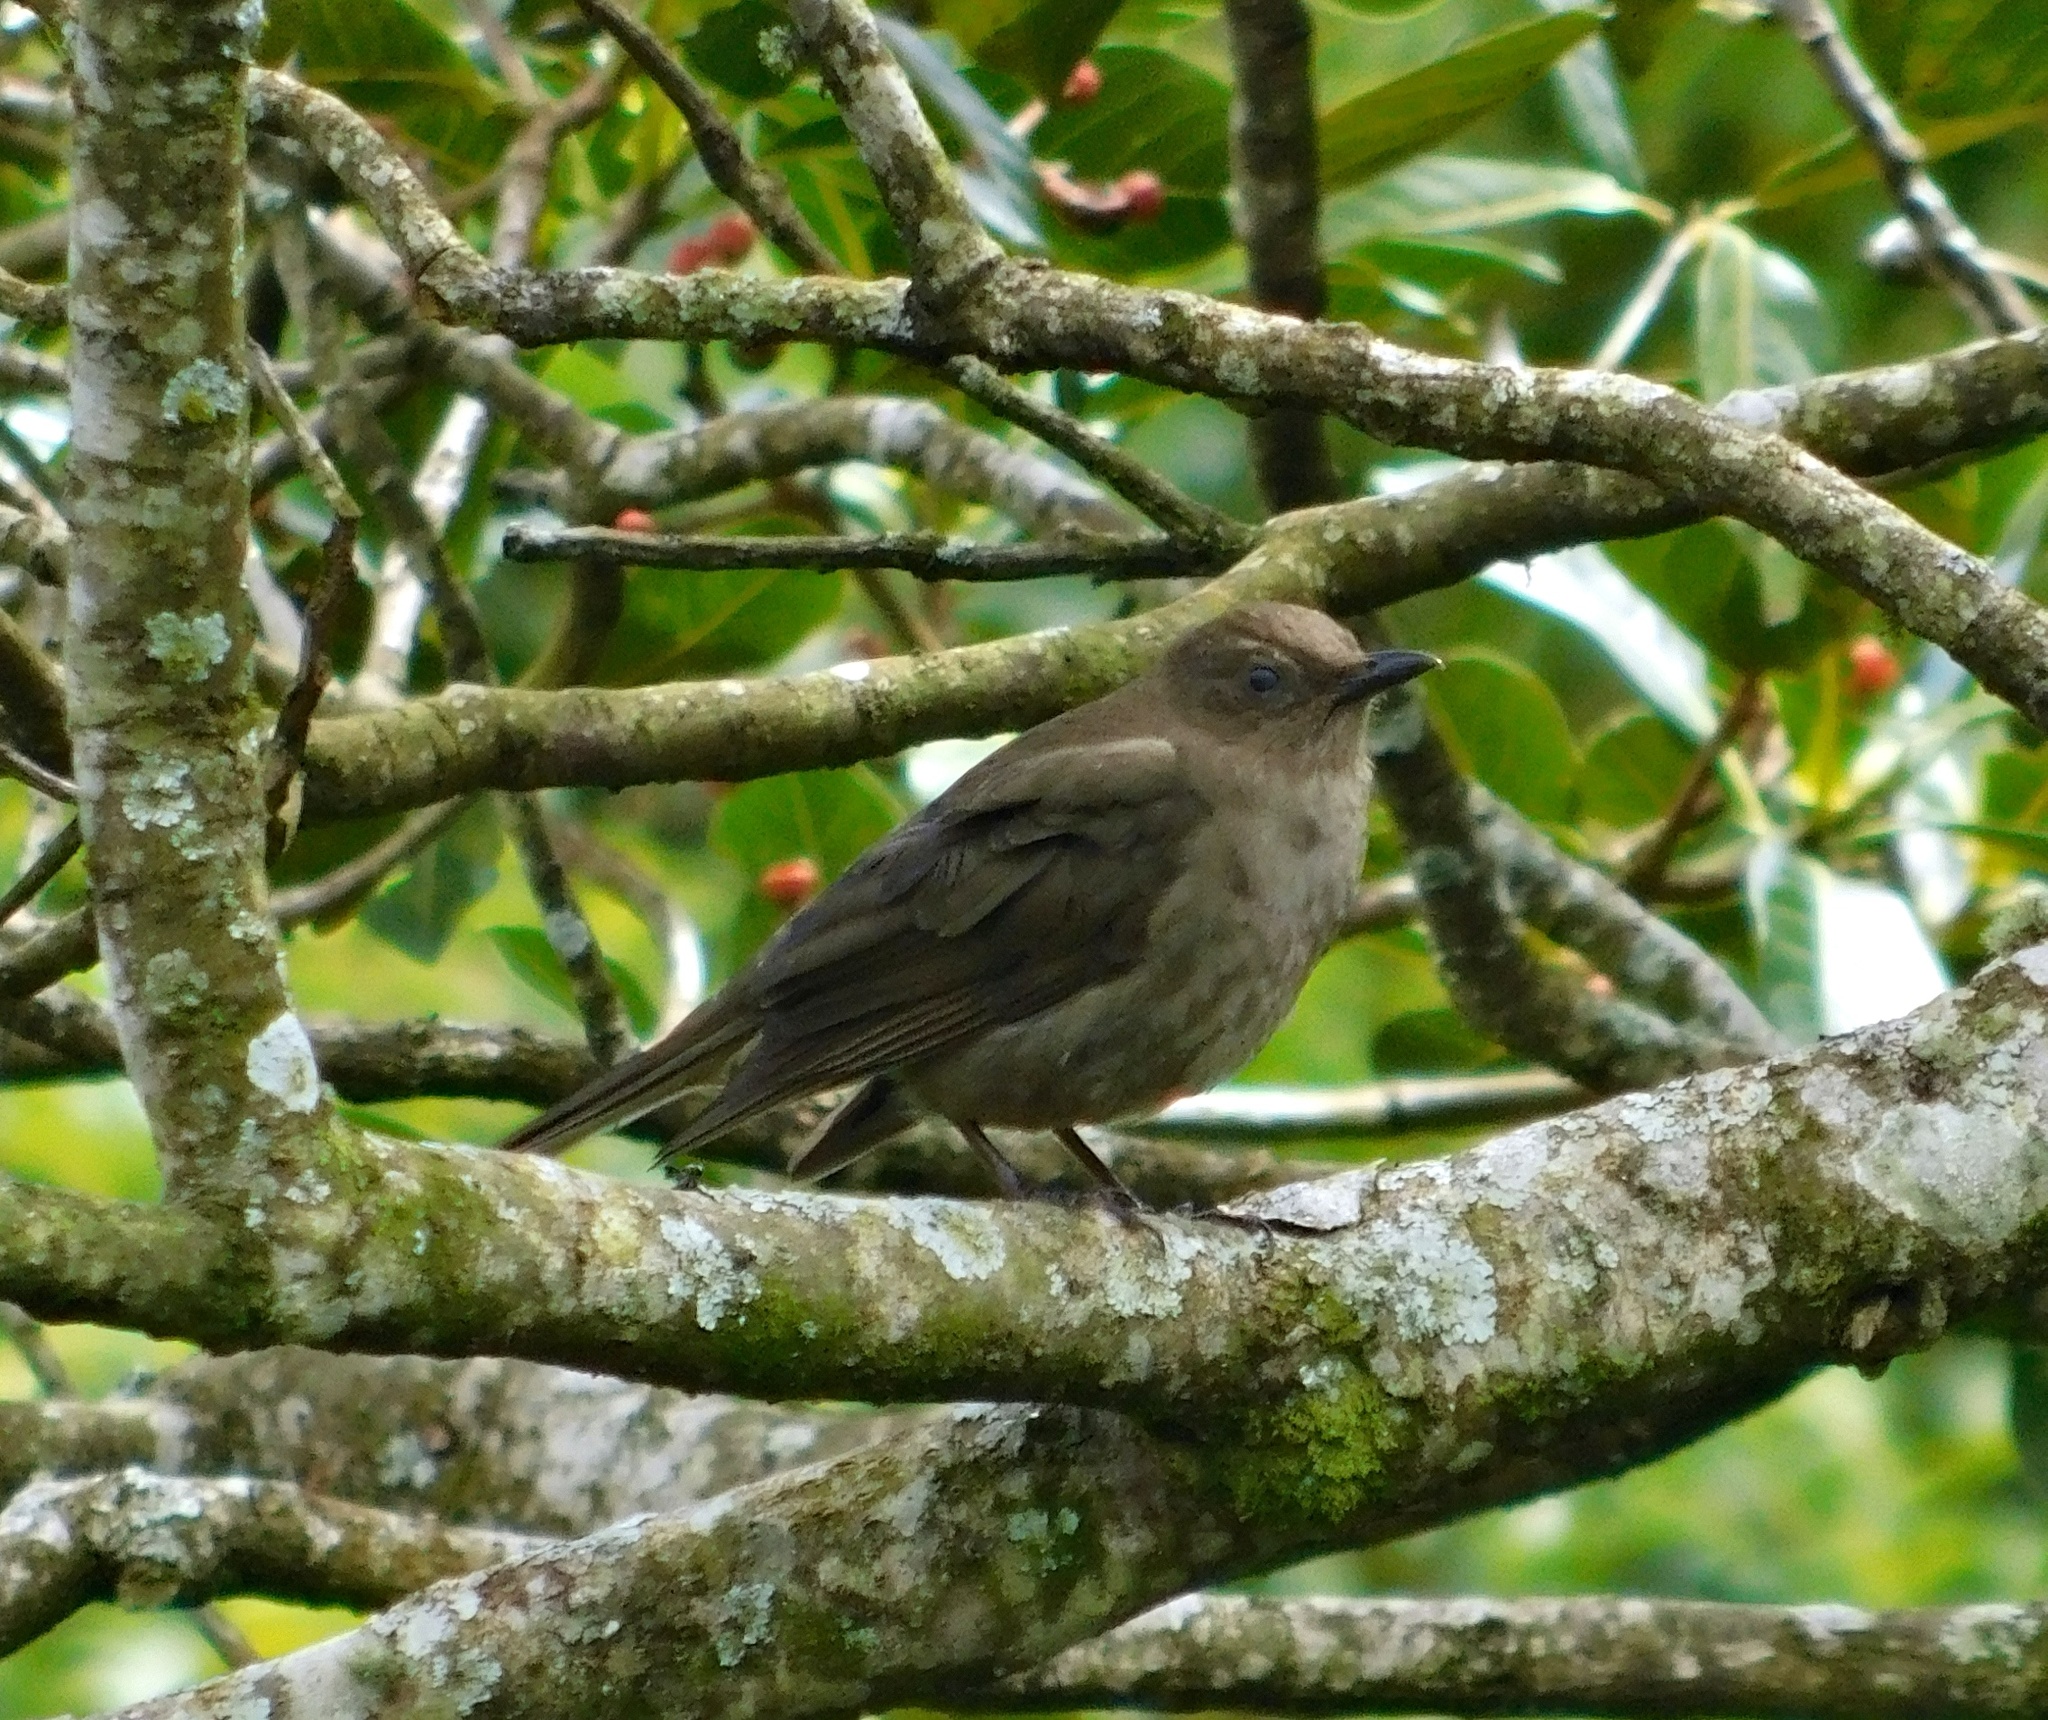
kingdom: Animalia
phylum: Chordata
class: Aves
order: Passeriformes
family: Turdidae
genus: Turdus
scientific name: Turdus plebejus
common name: Mountain thrush
